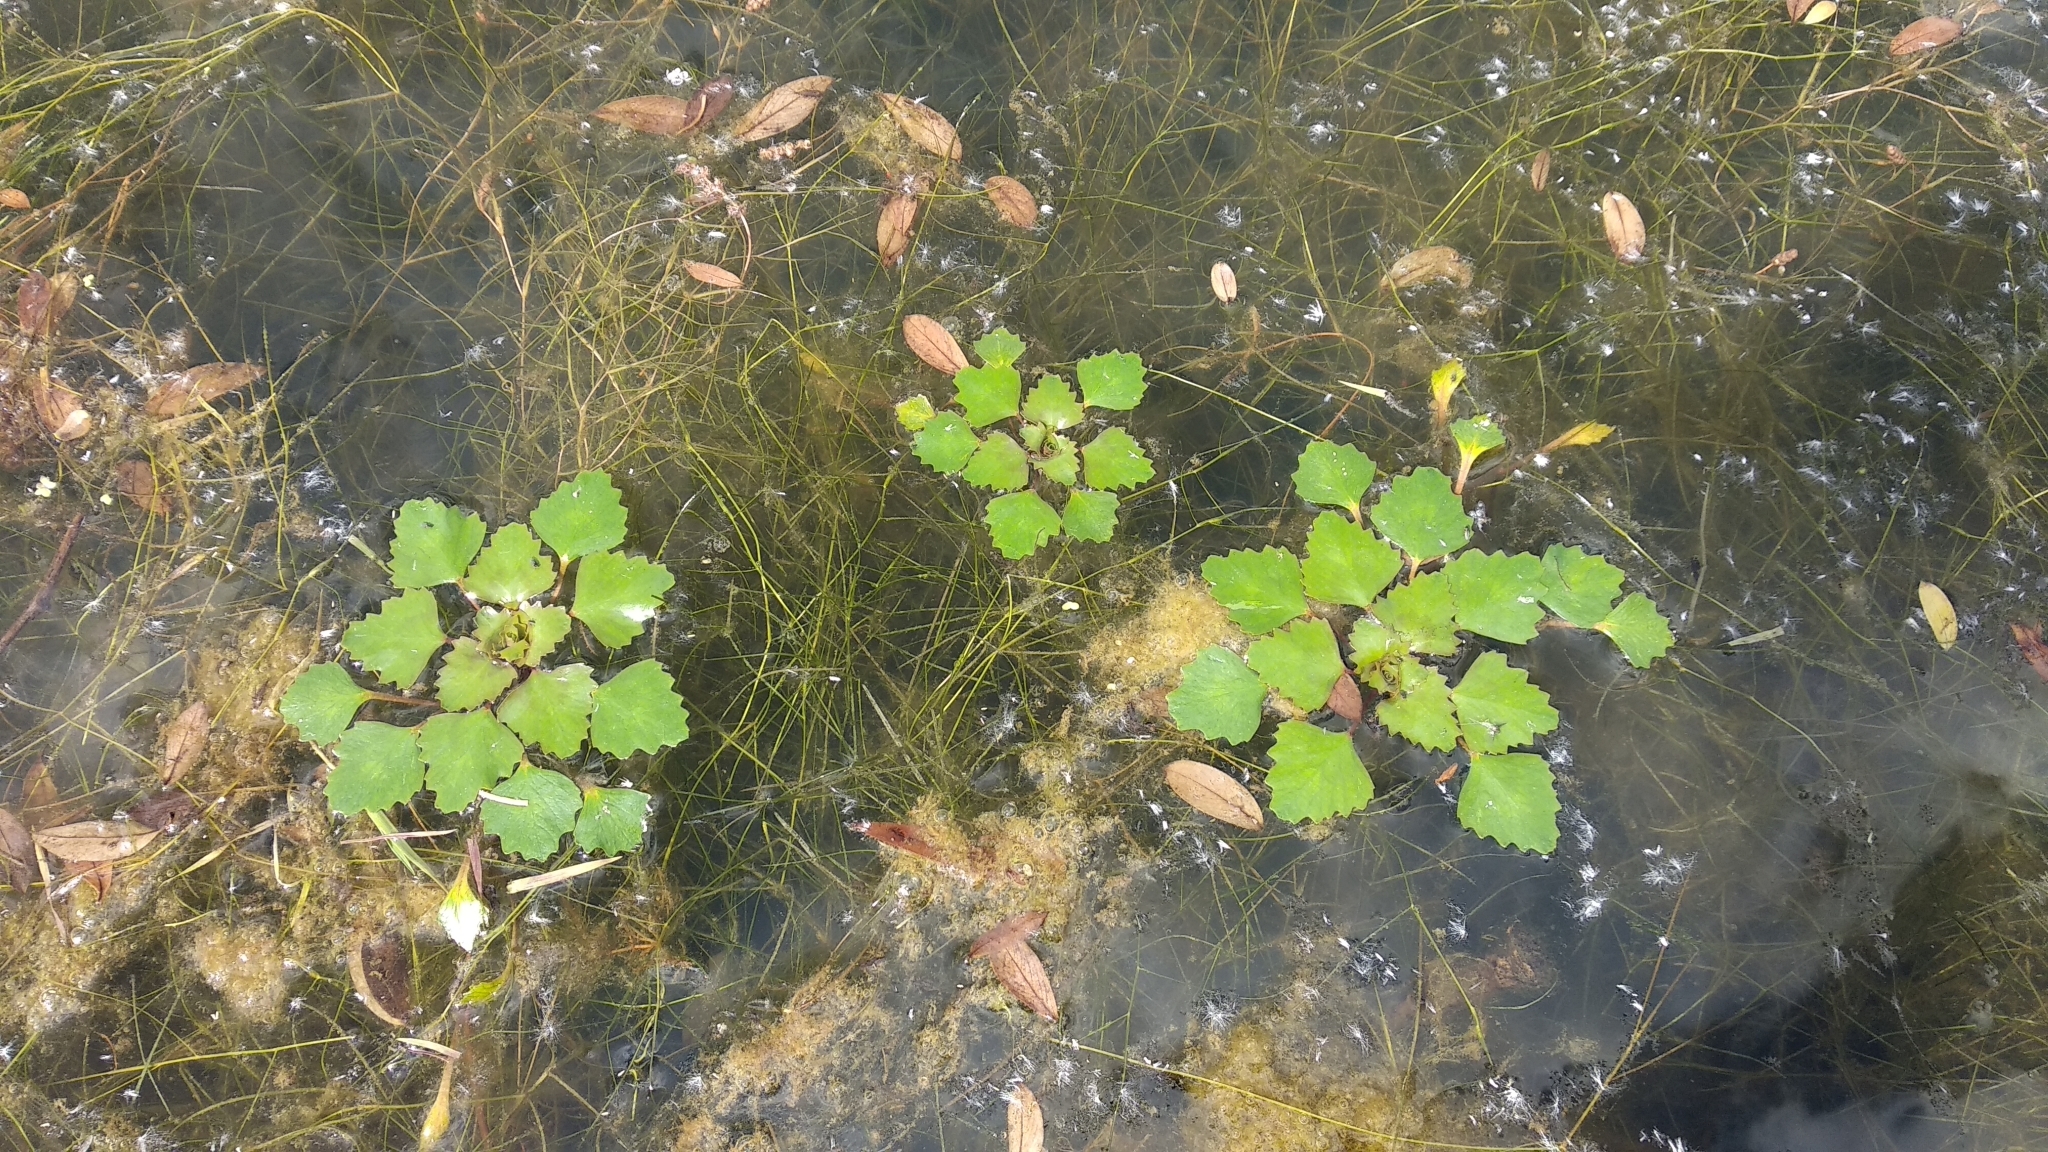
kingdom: Plantae
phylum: Tracheophyta
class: Magnoliopsida
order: Myrtales
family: Lythraceae
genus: Trapa
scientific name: Trapa natans
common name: Water chestnut
